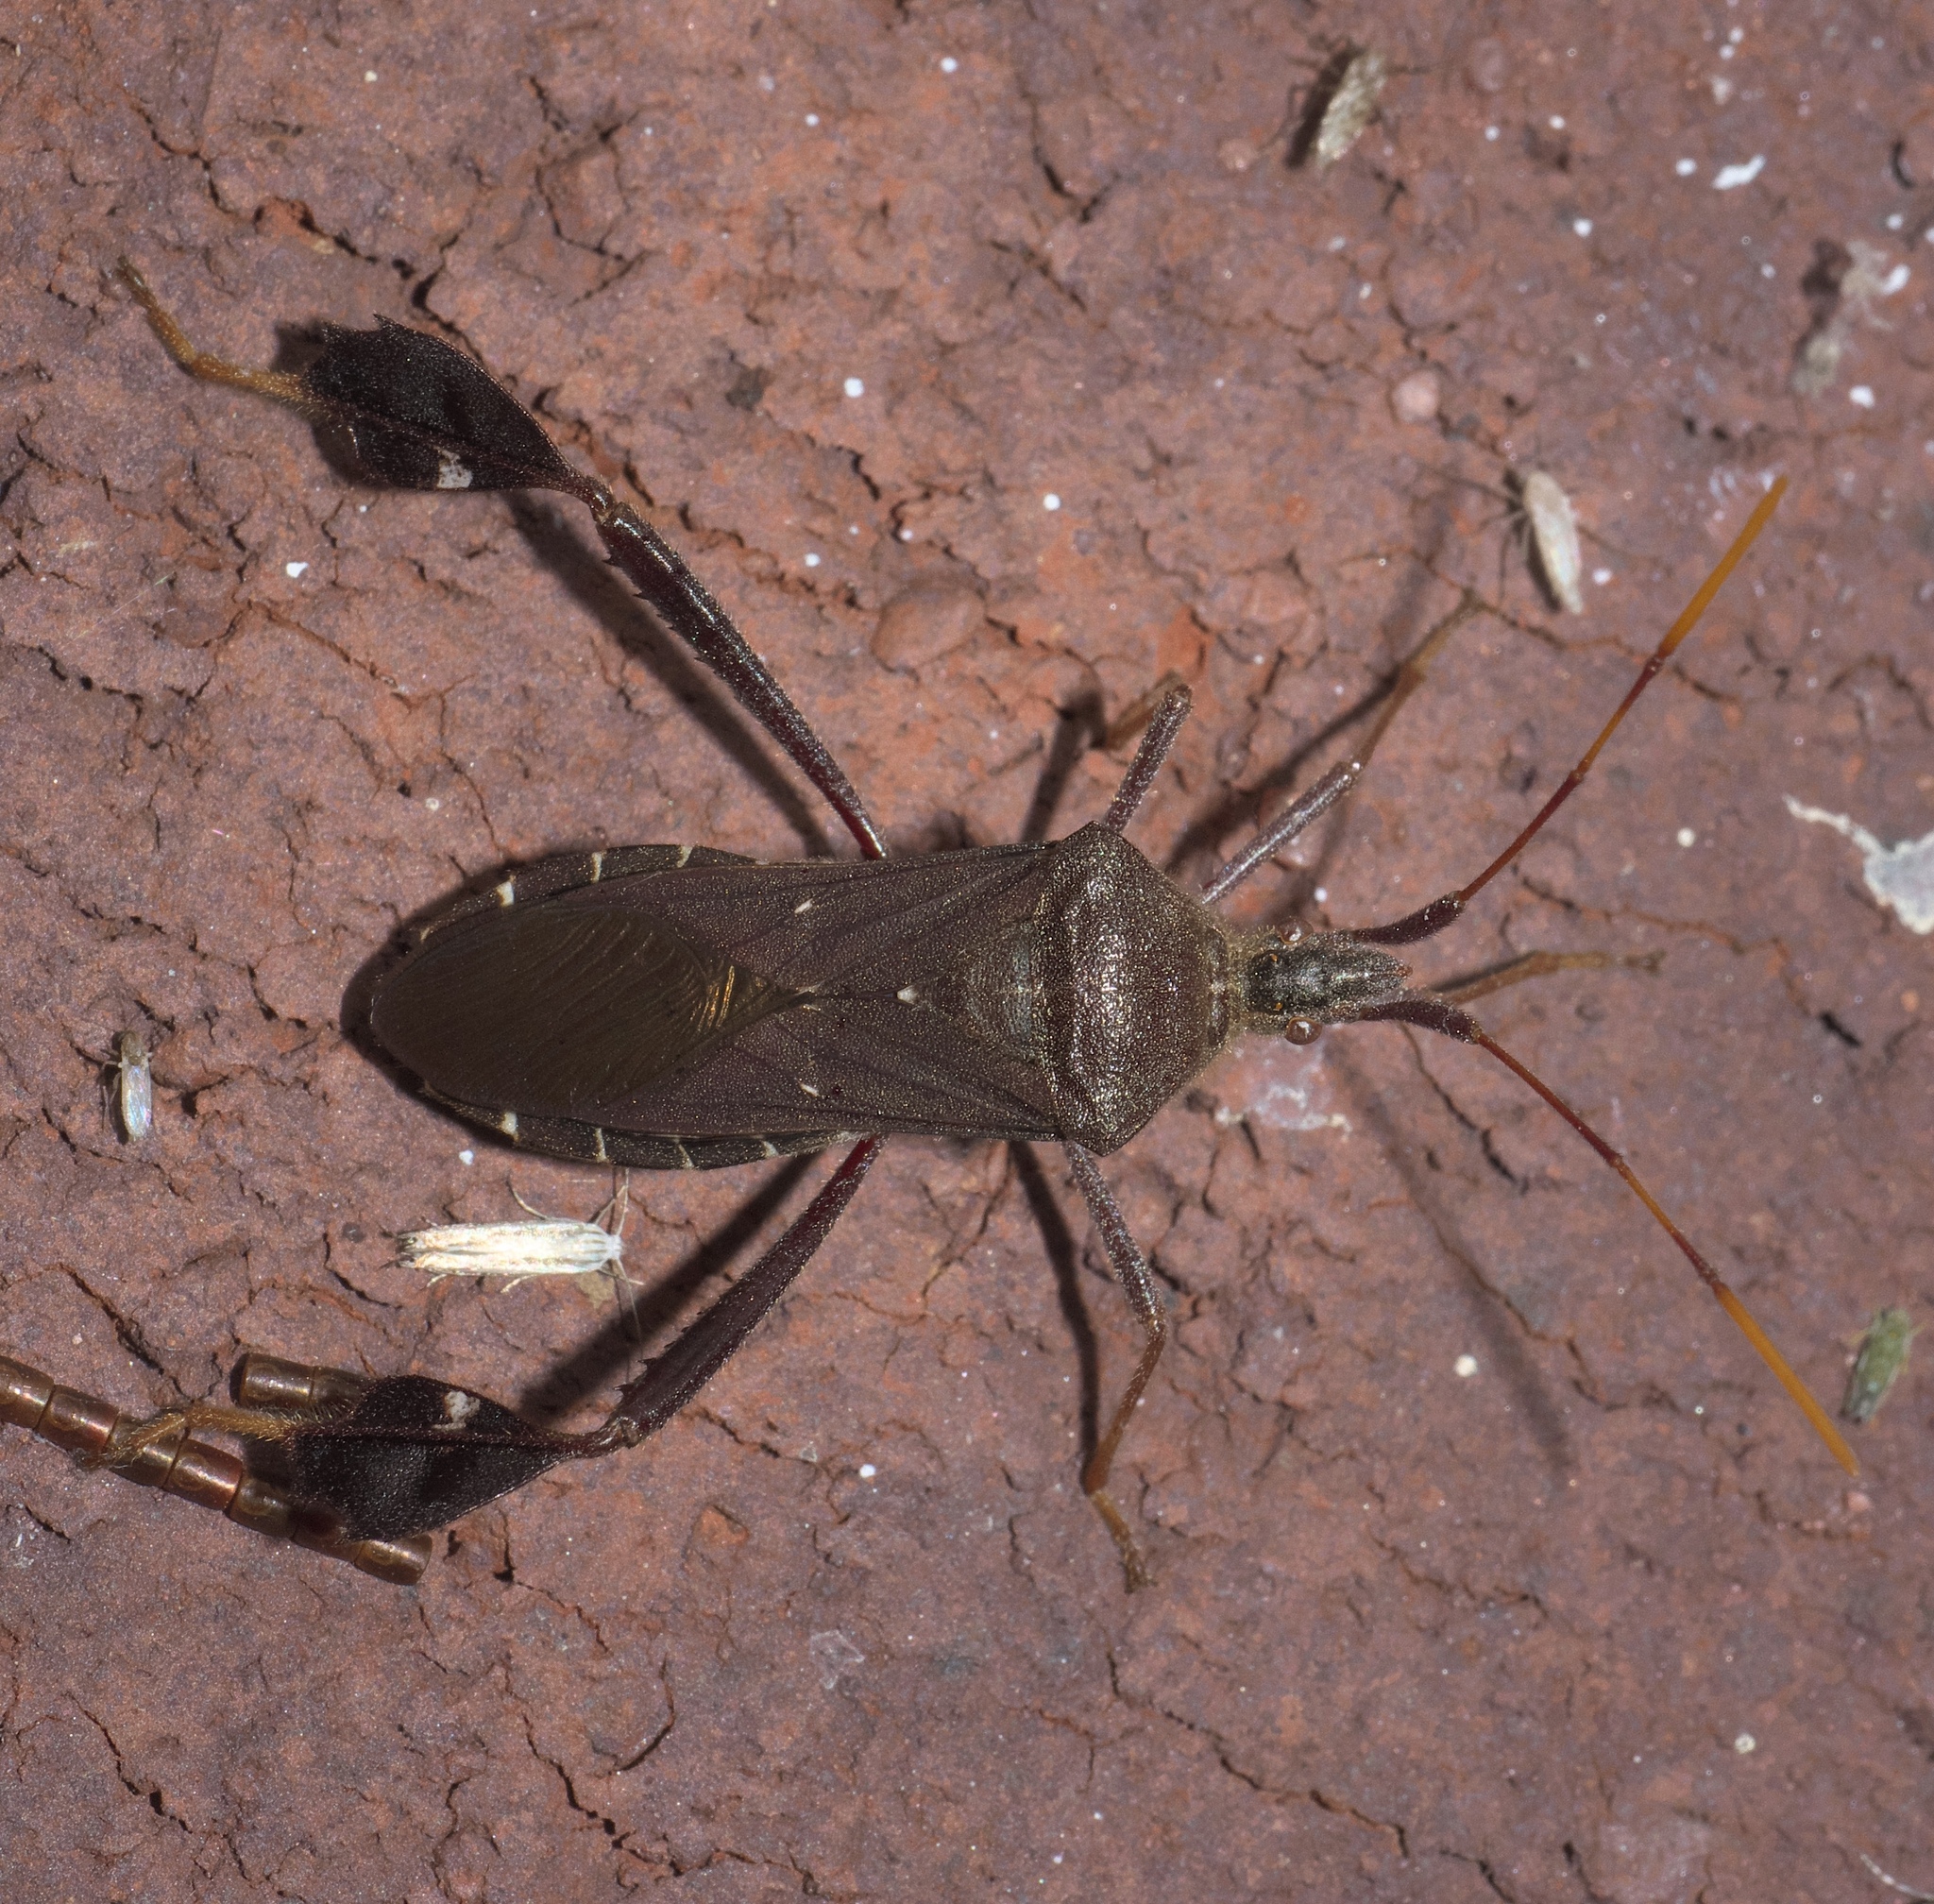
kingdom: Animalia
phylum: Arthropoda
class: Insecta
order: Hemiptera
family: Coreidae
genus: Leptoglossus
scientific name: Leptoglossus oppositus
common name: Northern leaf-footed bug
